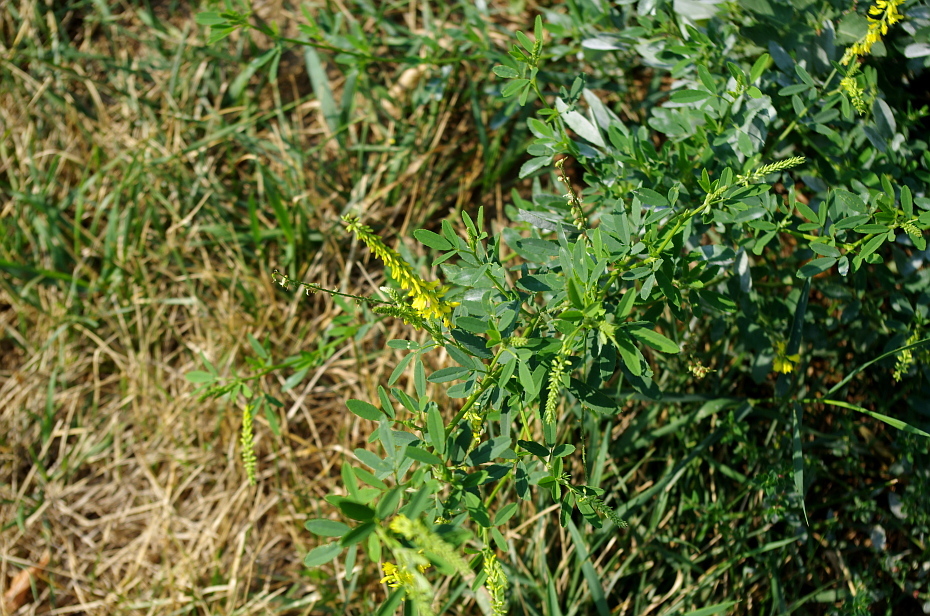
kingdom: Plantae
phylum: Tracheophyta
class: Magnoliopsida
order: Fabales
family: Fabaceae
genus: Melilotus
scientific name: Melilotus officinalis
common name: Sweetclover
